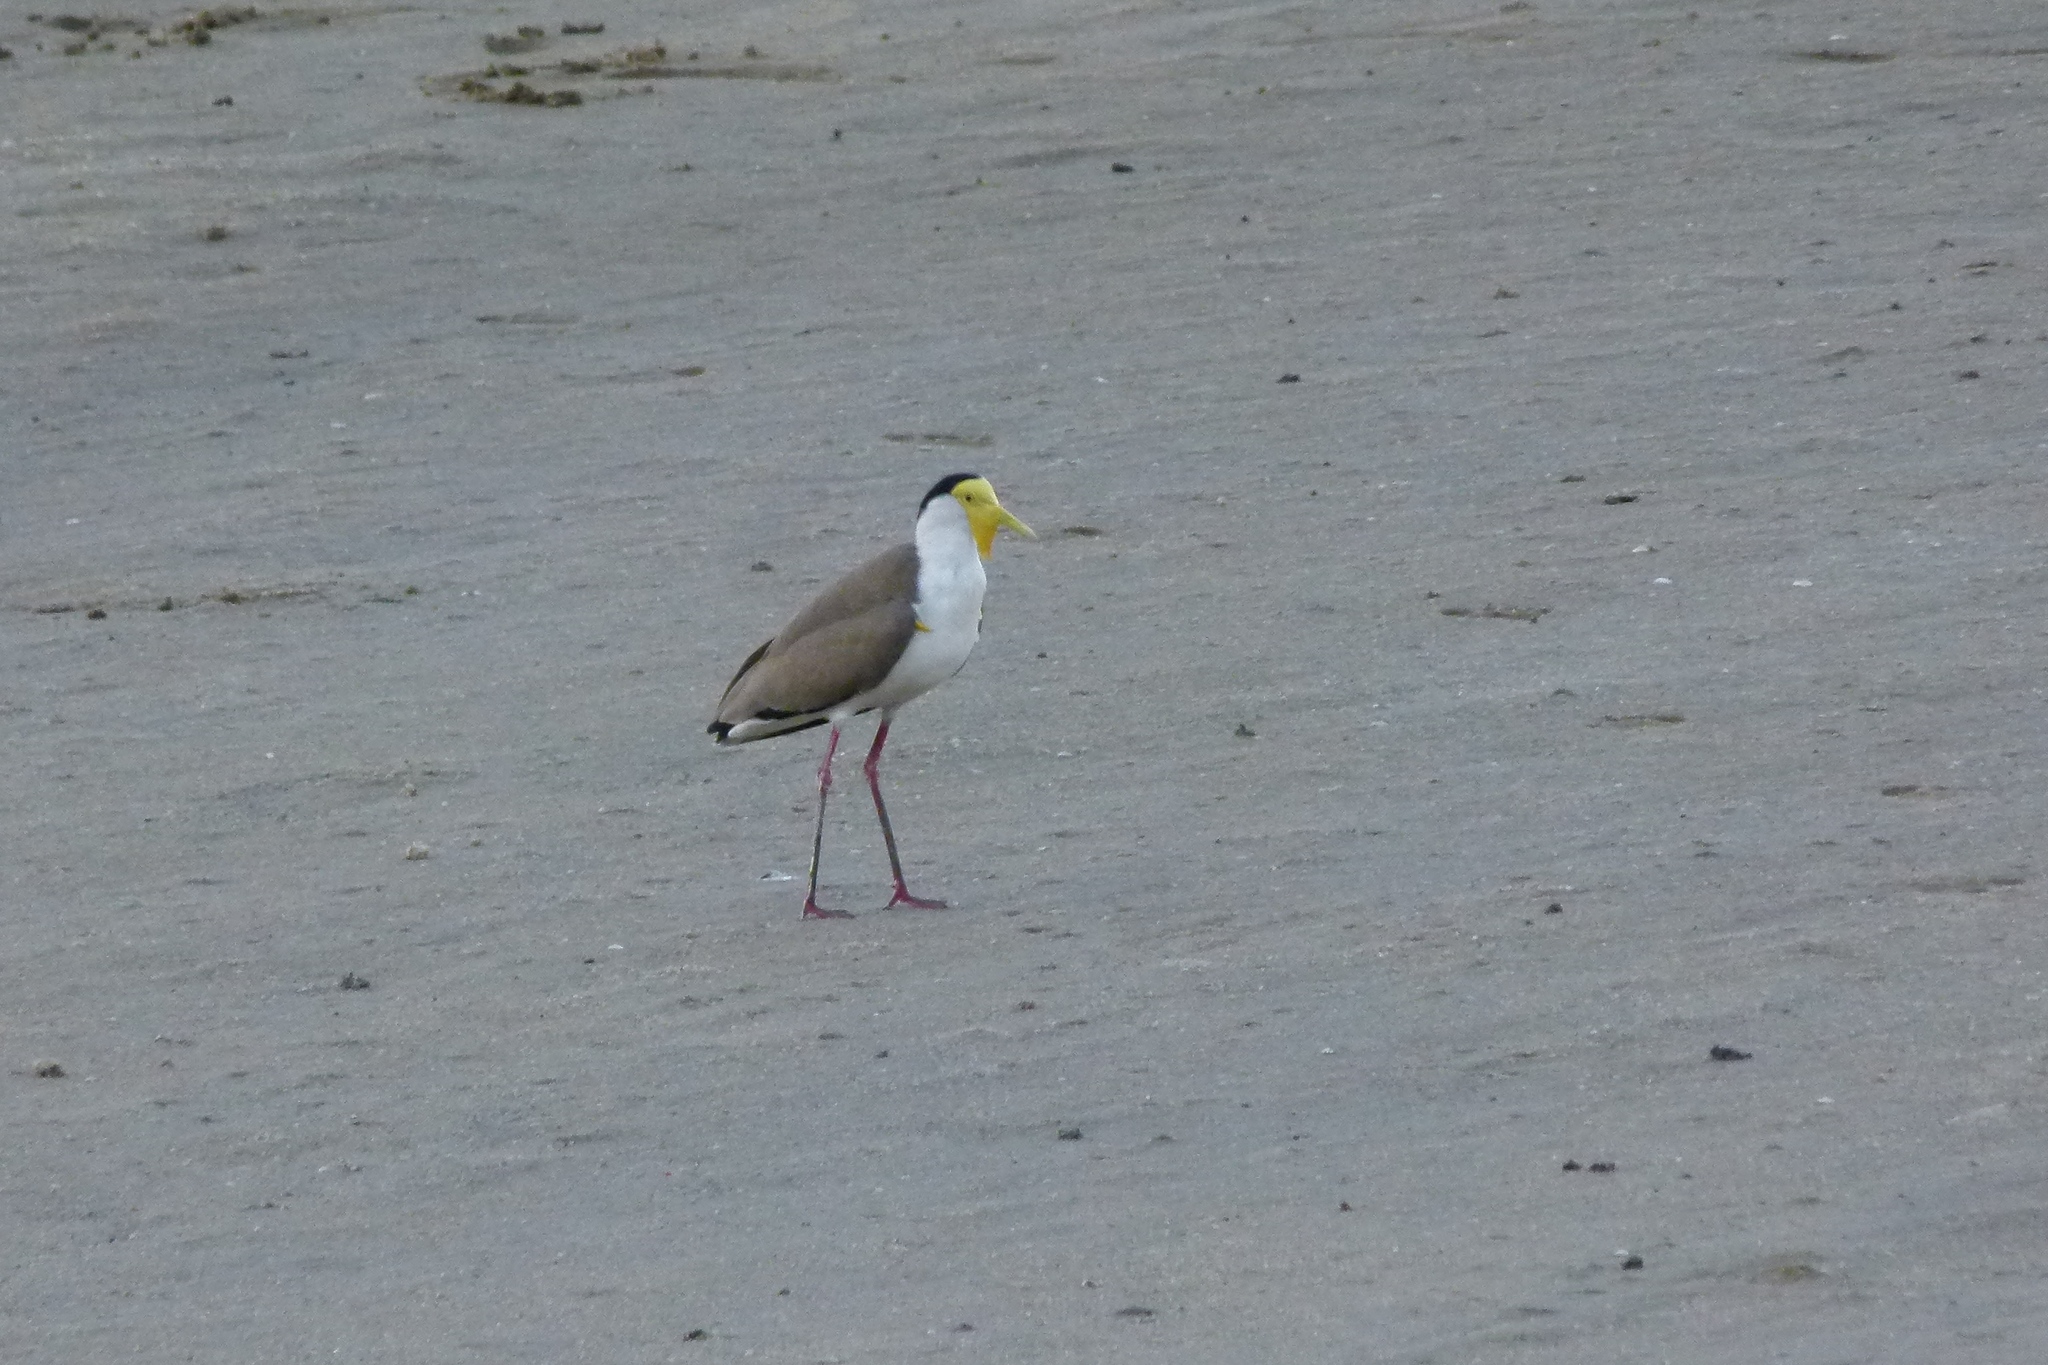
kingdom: Animalia
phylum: Chordata
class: Aves
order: Charadriiformes
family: Charadriidae
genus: Vanellus
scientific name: Vanellus miles
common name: Masked lapwing
